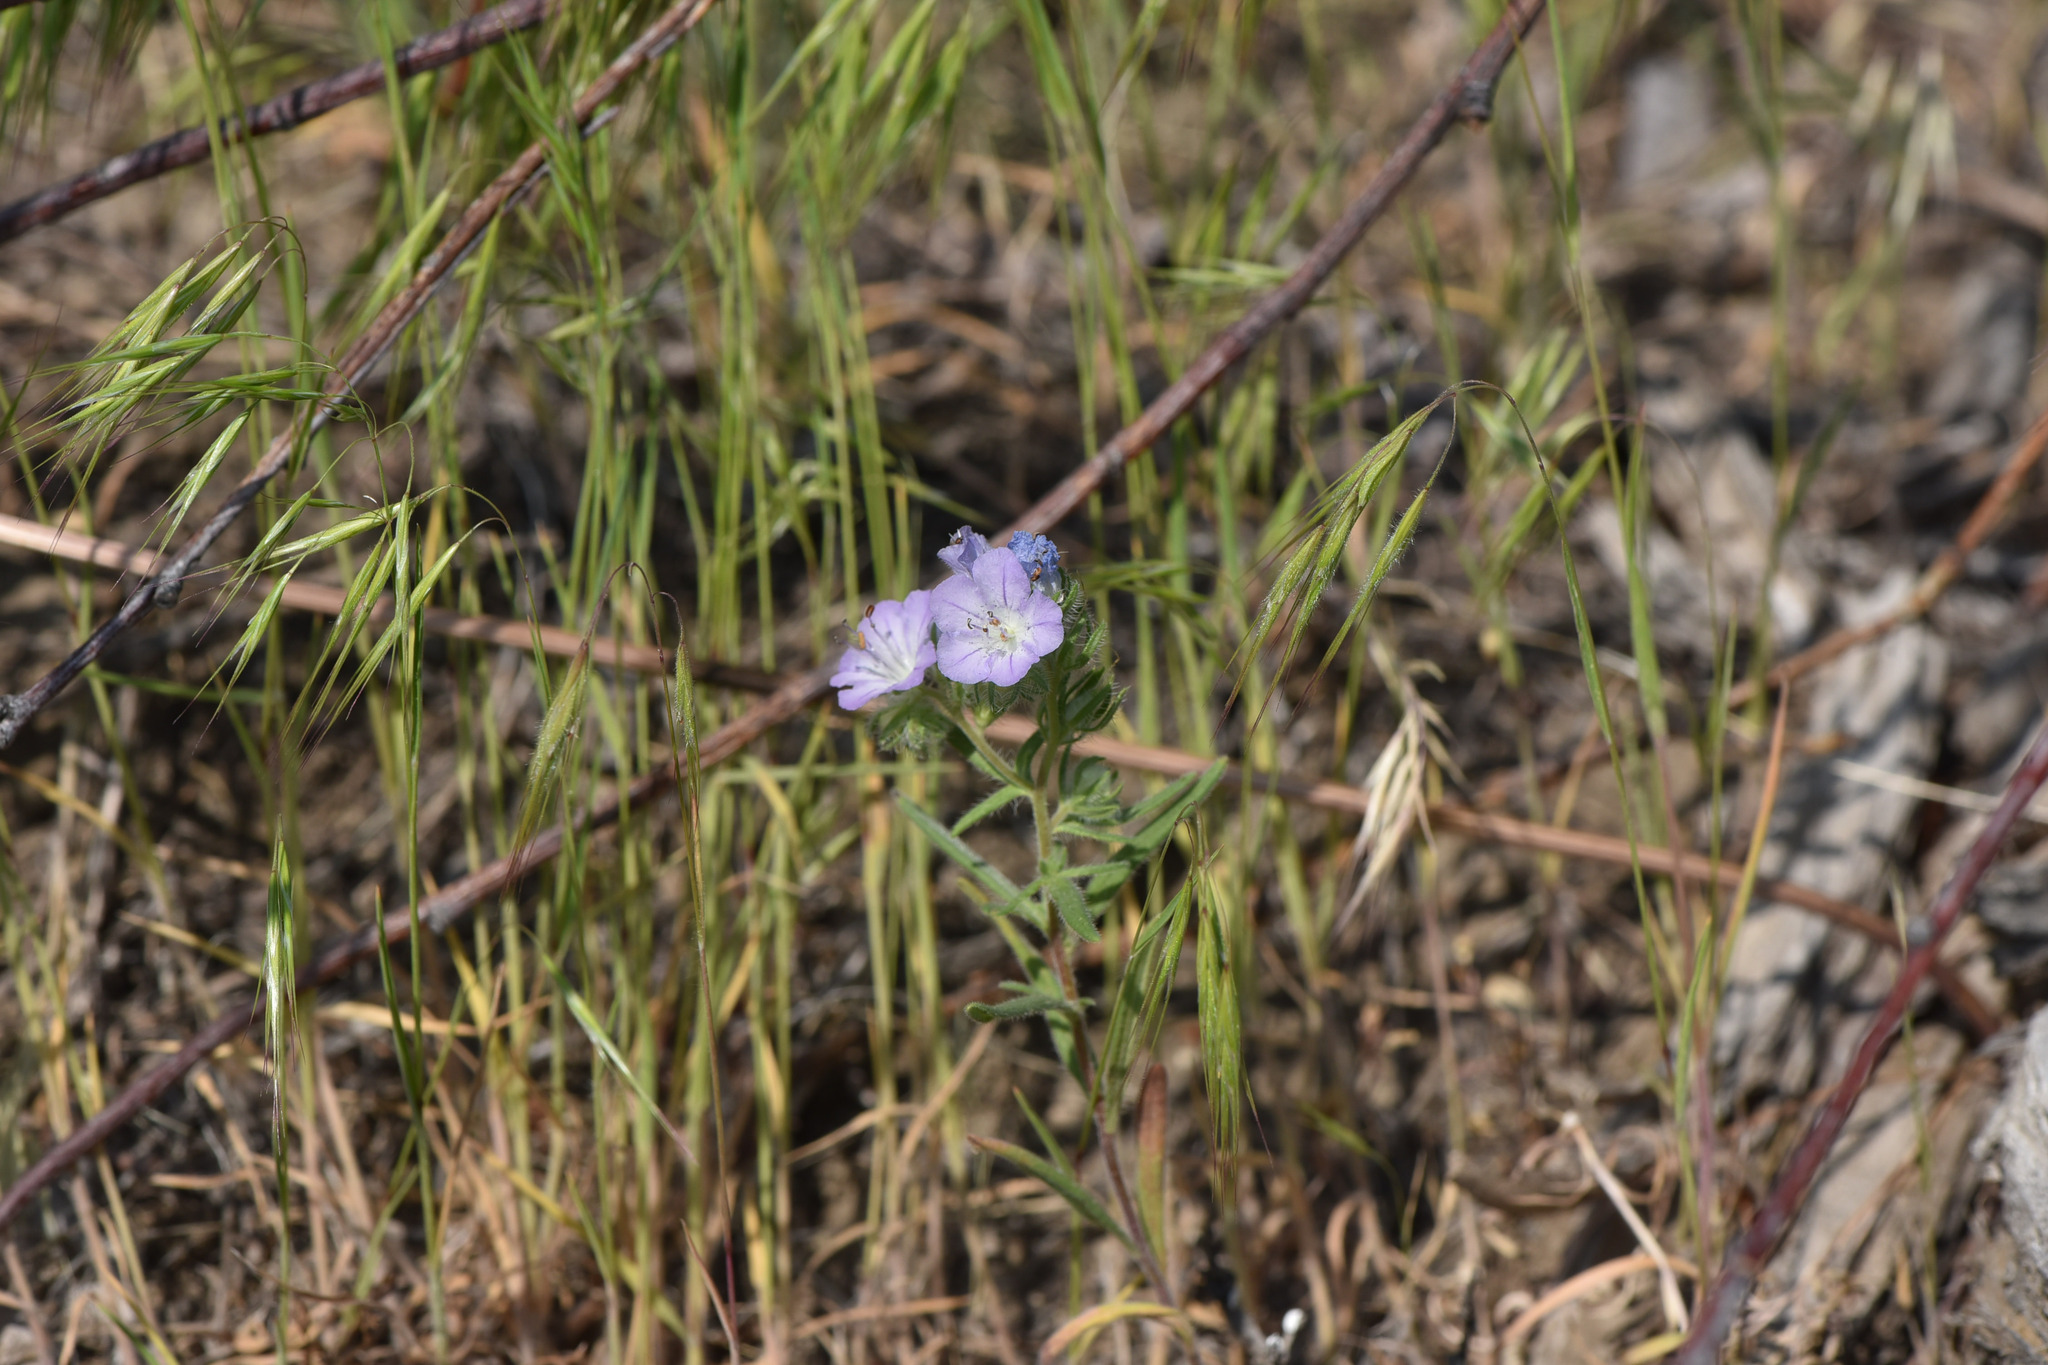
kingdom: Plantae
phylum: Tracheophyta
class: Magnoliopsida
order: Boraginales
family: Hydrophyllaceae
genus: Phacelia
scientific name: Phacelia linearis
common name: Linear-leaved phacelia
